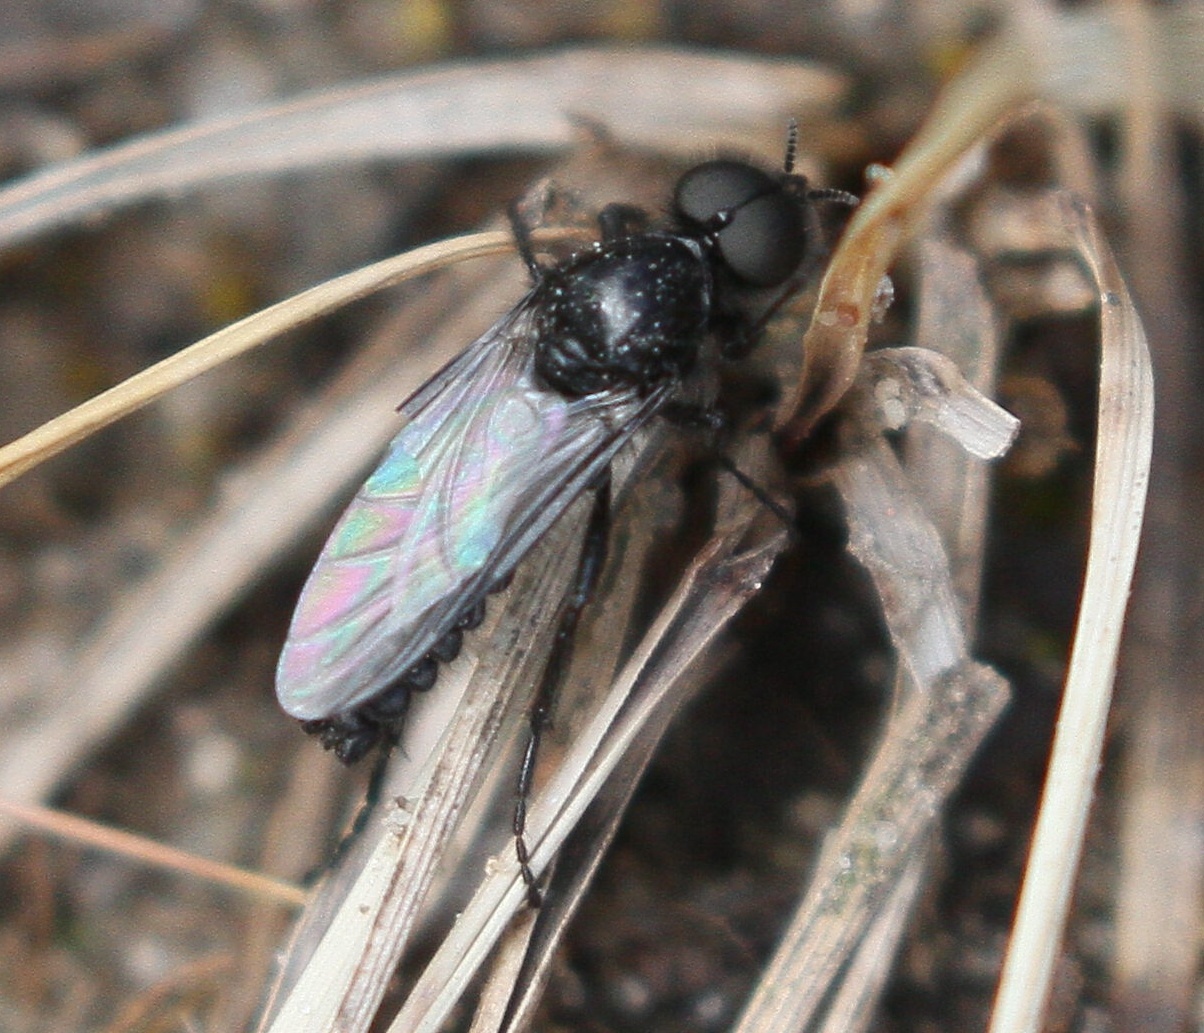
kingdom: Animalia
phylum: Arthropoda
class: Insecta
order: Diptera
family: Bibionidae
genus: Bibio
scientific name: Bibio marci
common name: St marks fly
